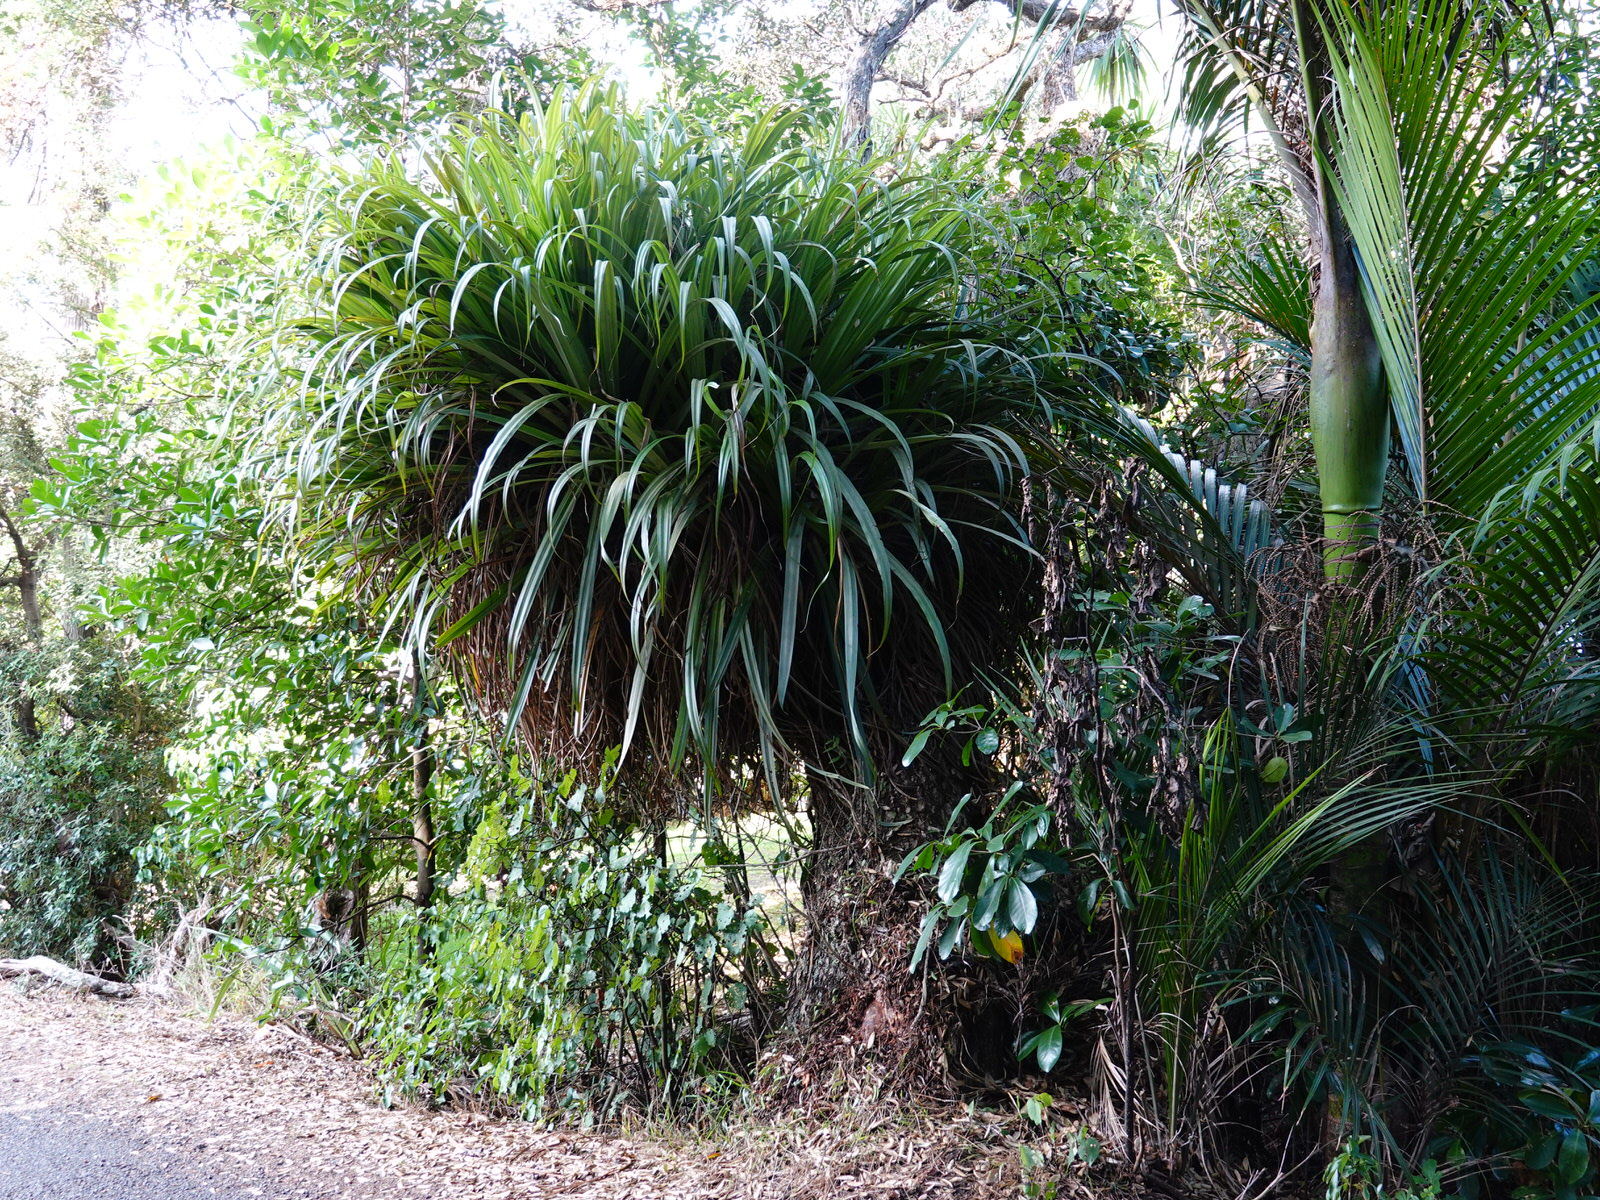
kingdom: Plantae
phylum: Tracheophyta
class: Liliopsida
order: Asparagales
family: Asteliaceae
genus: Astelia
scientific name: Astelia hastata
